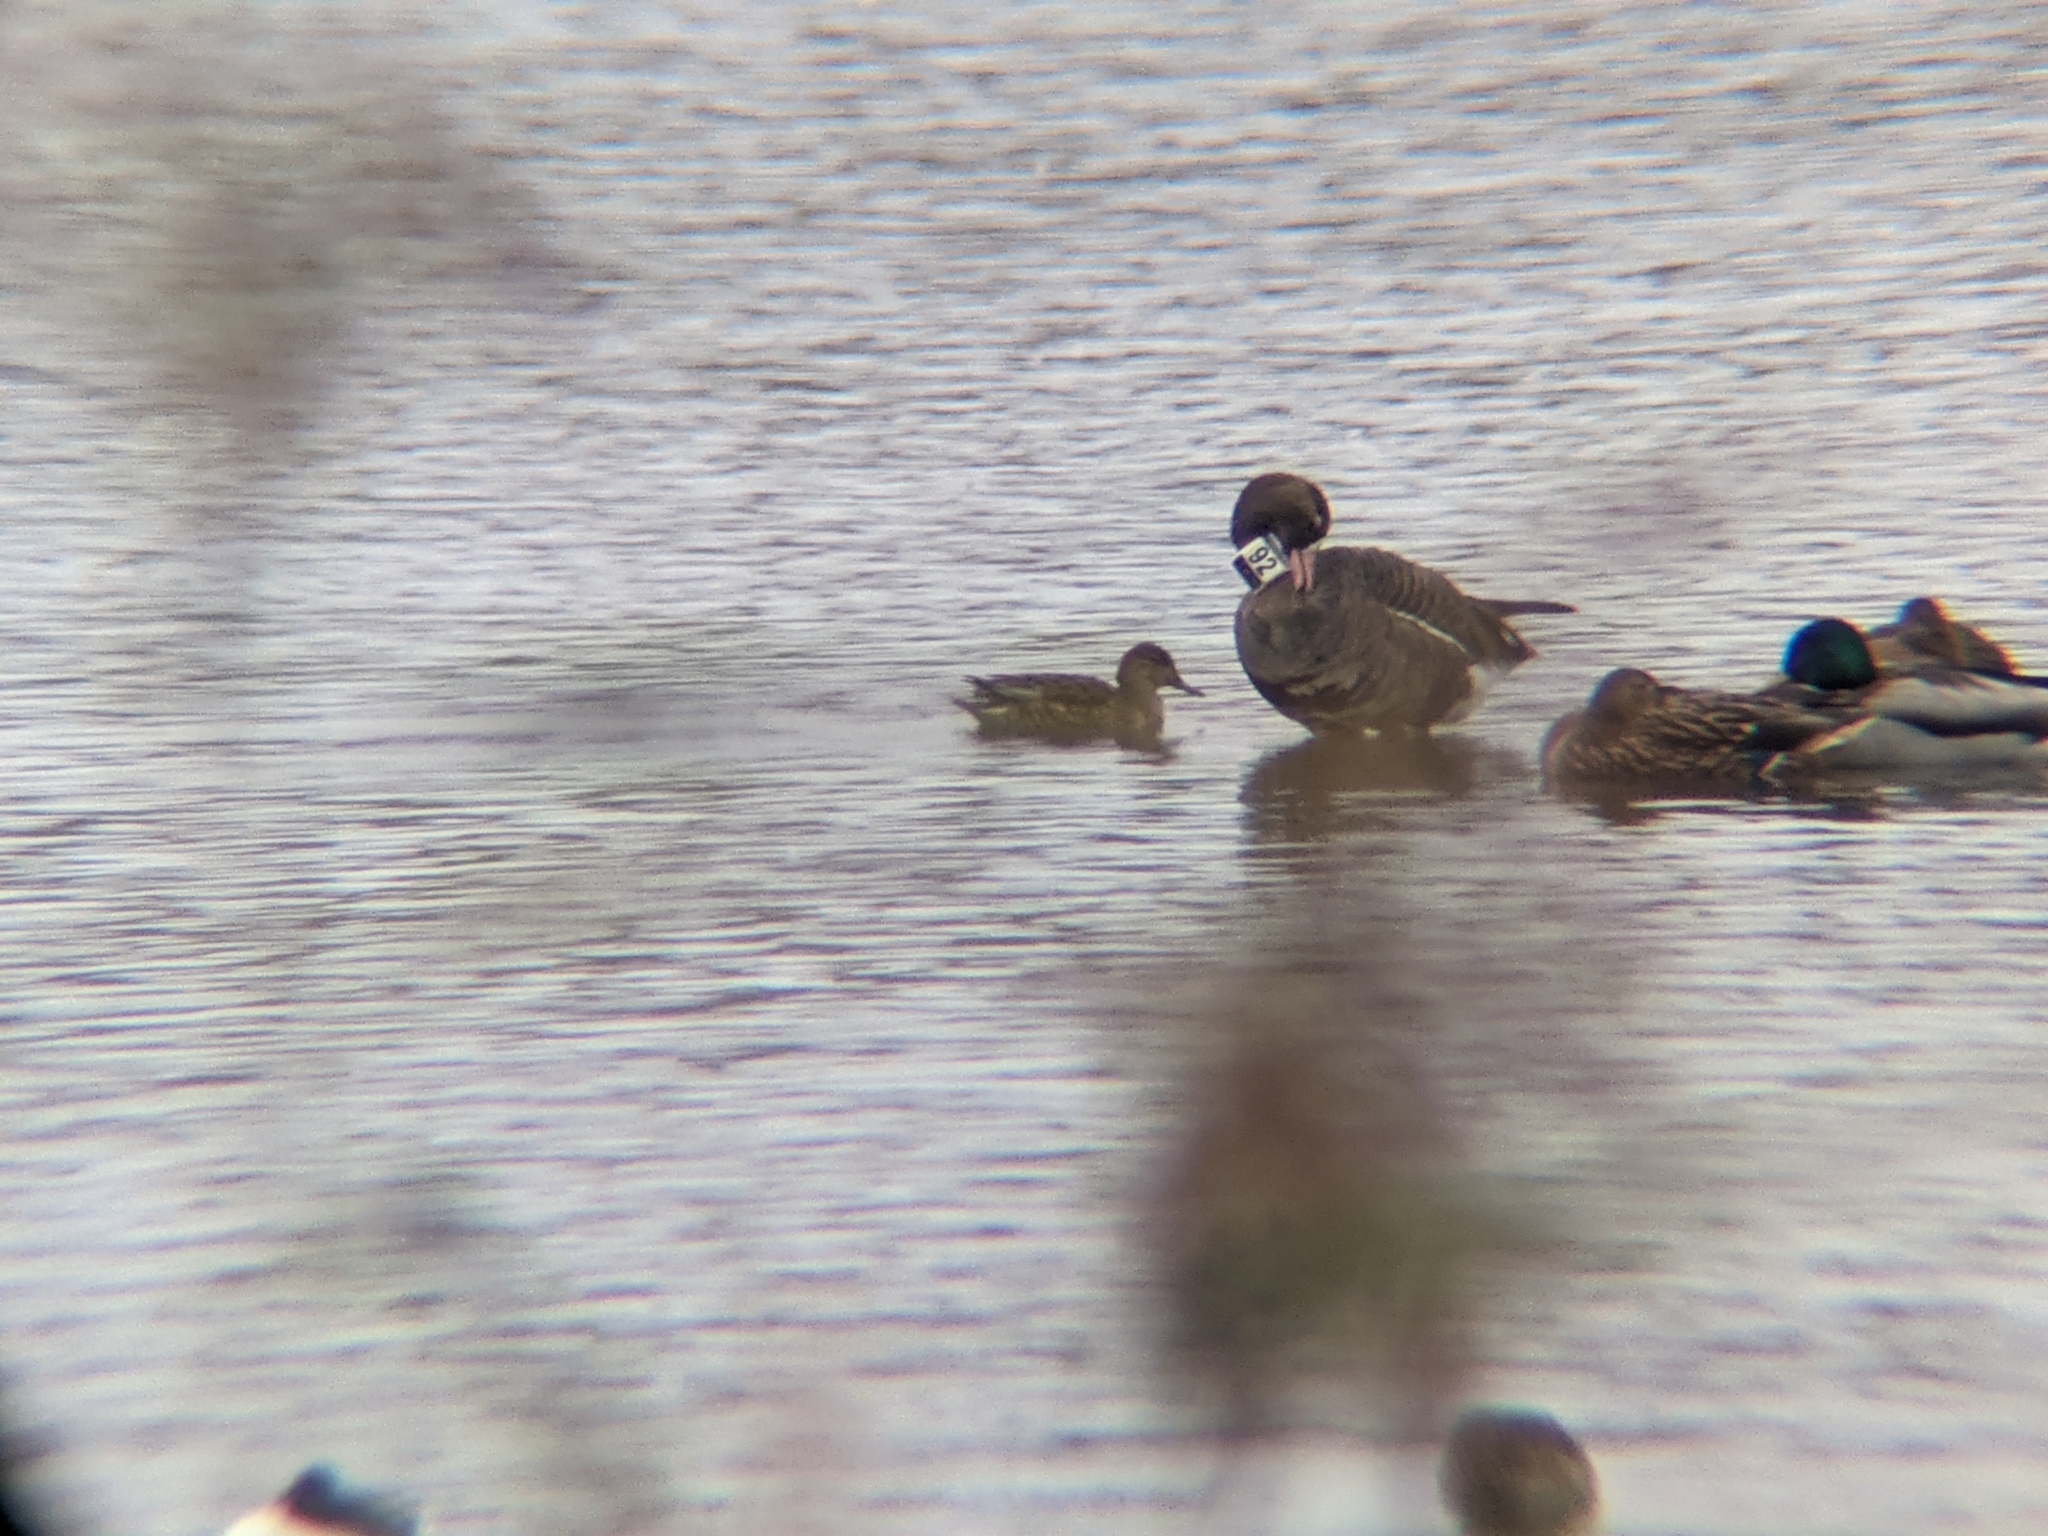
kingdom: Animalia
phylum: Chordata
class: Aves
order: Anseriformes
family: Anatidae
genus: Anser
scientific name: Anser albifrons
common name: Greater white-fronted goose
